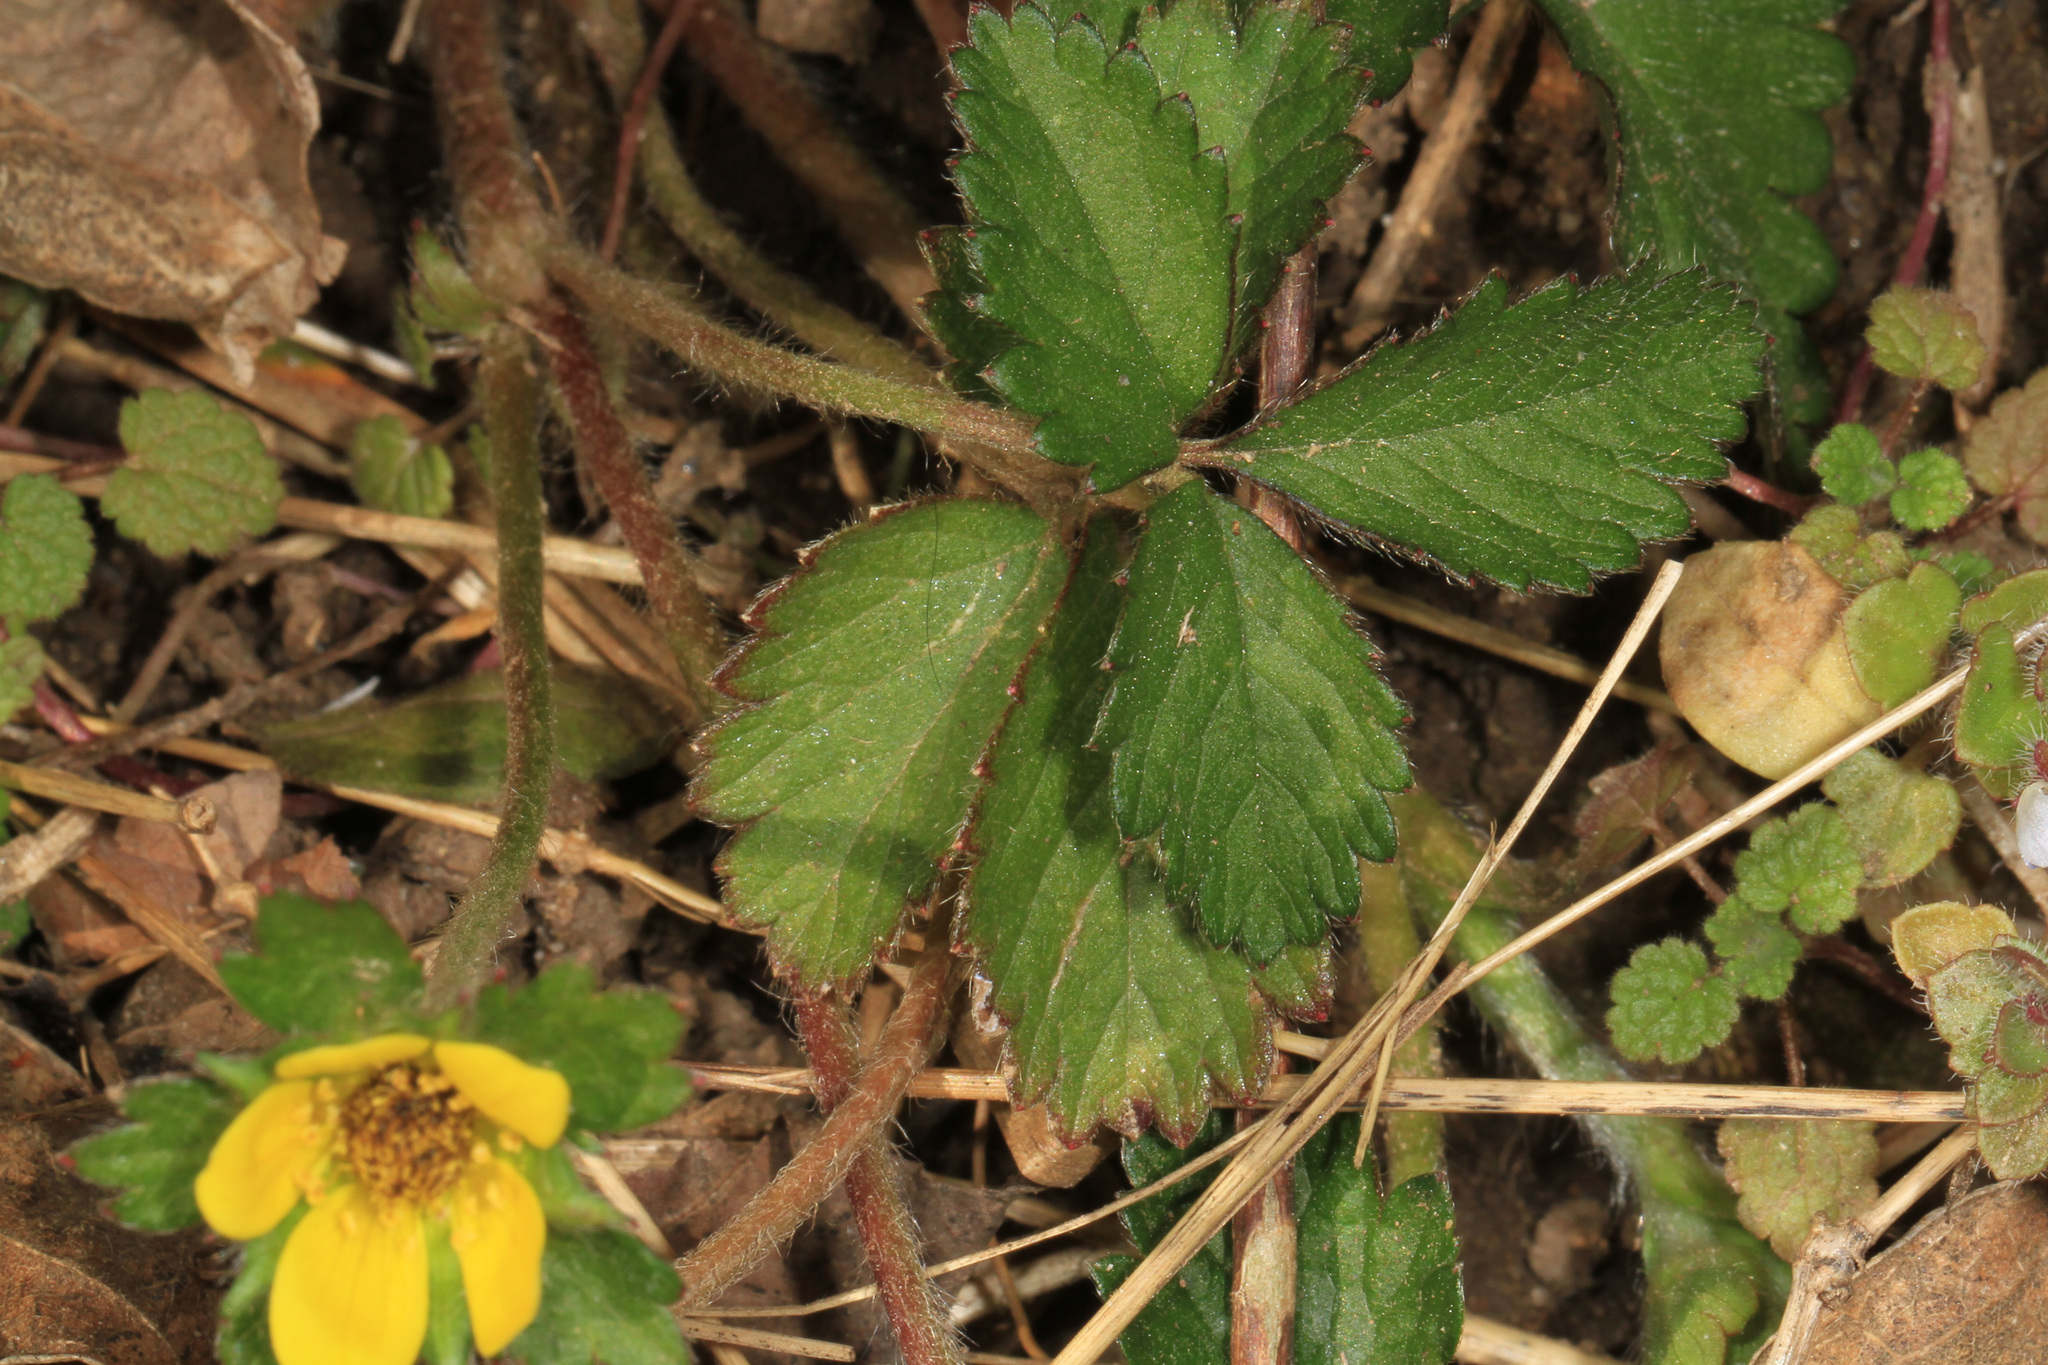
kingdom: Plantae
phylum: Tracheophyta
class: Magnoliopsida
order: Rosales
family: Rosaceae
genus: Potentilla
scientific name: Potentilla indica
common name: Yellow-flowered strawberry
